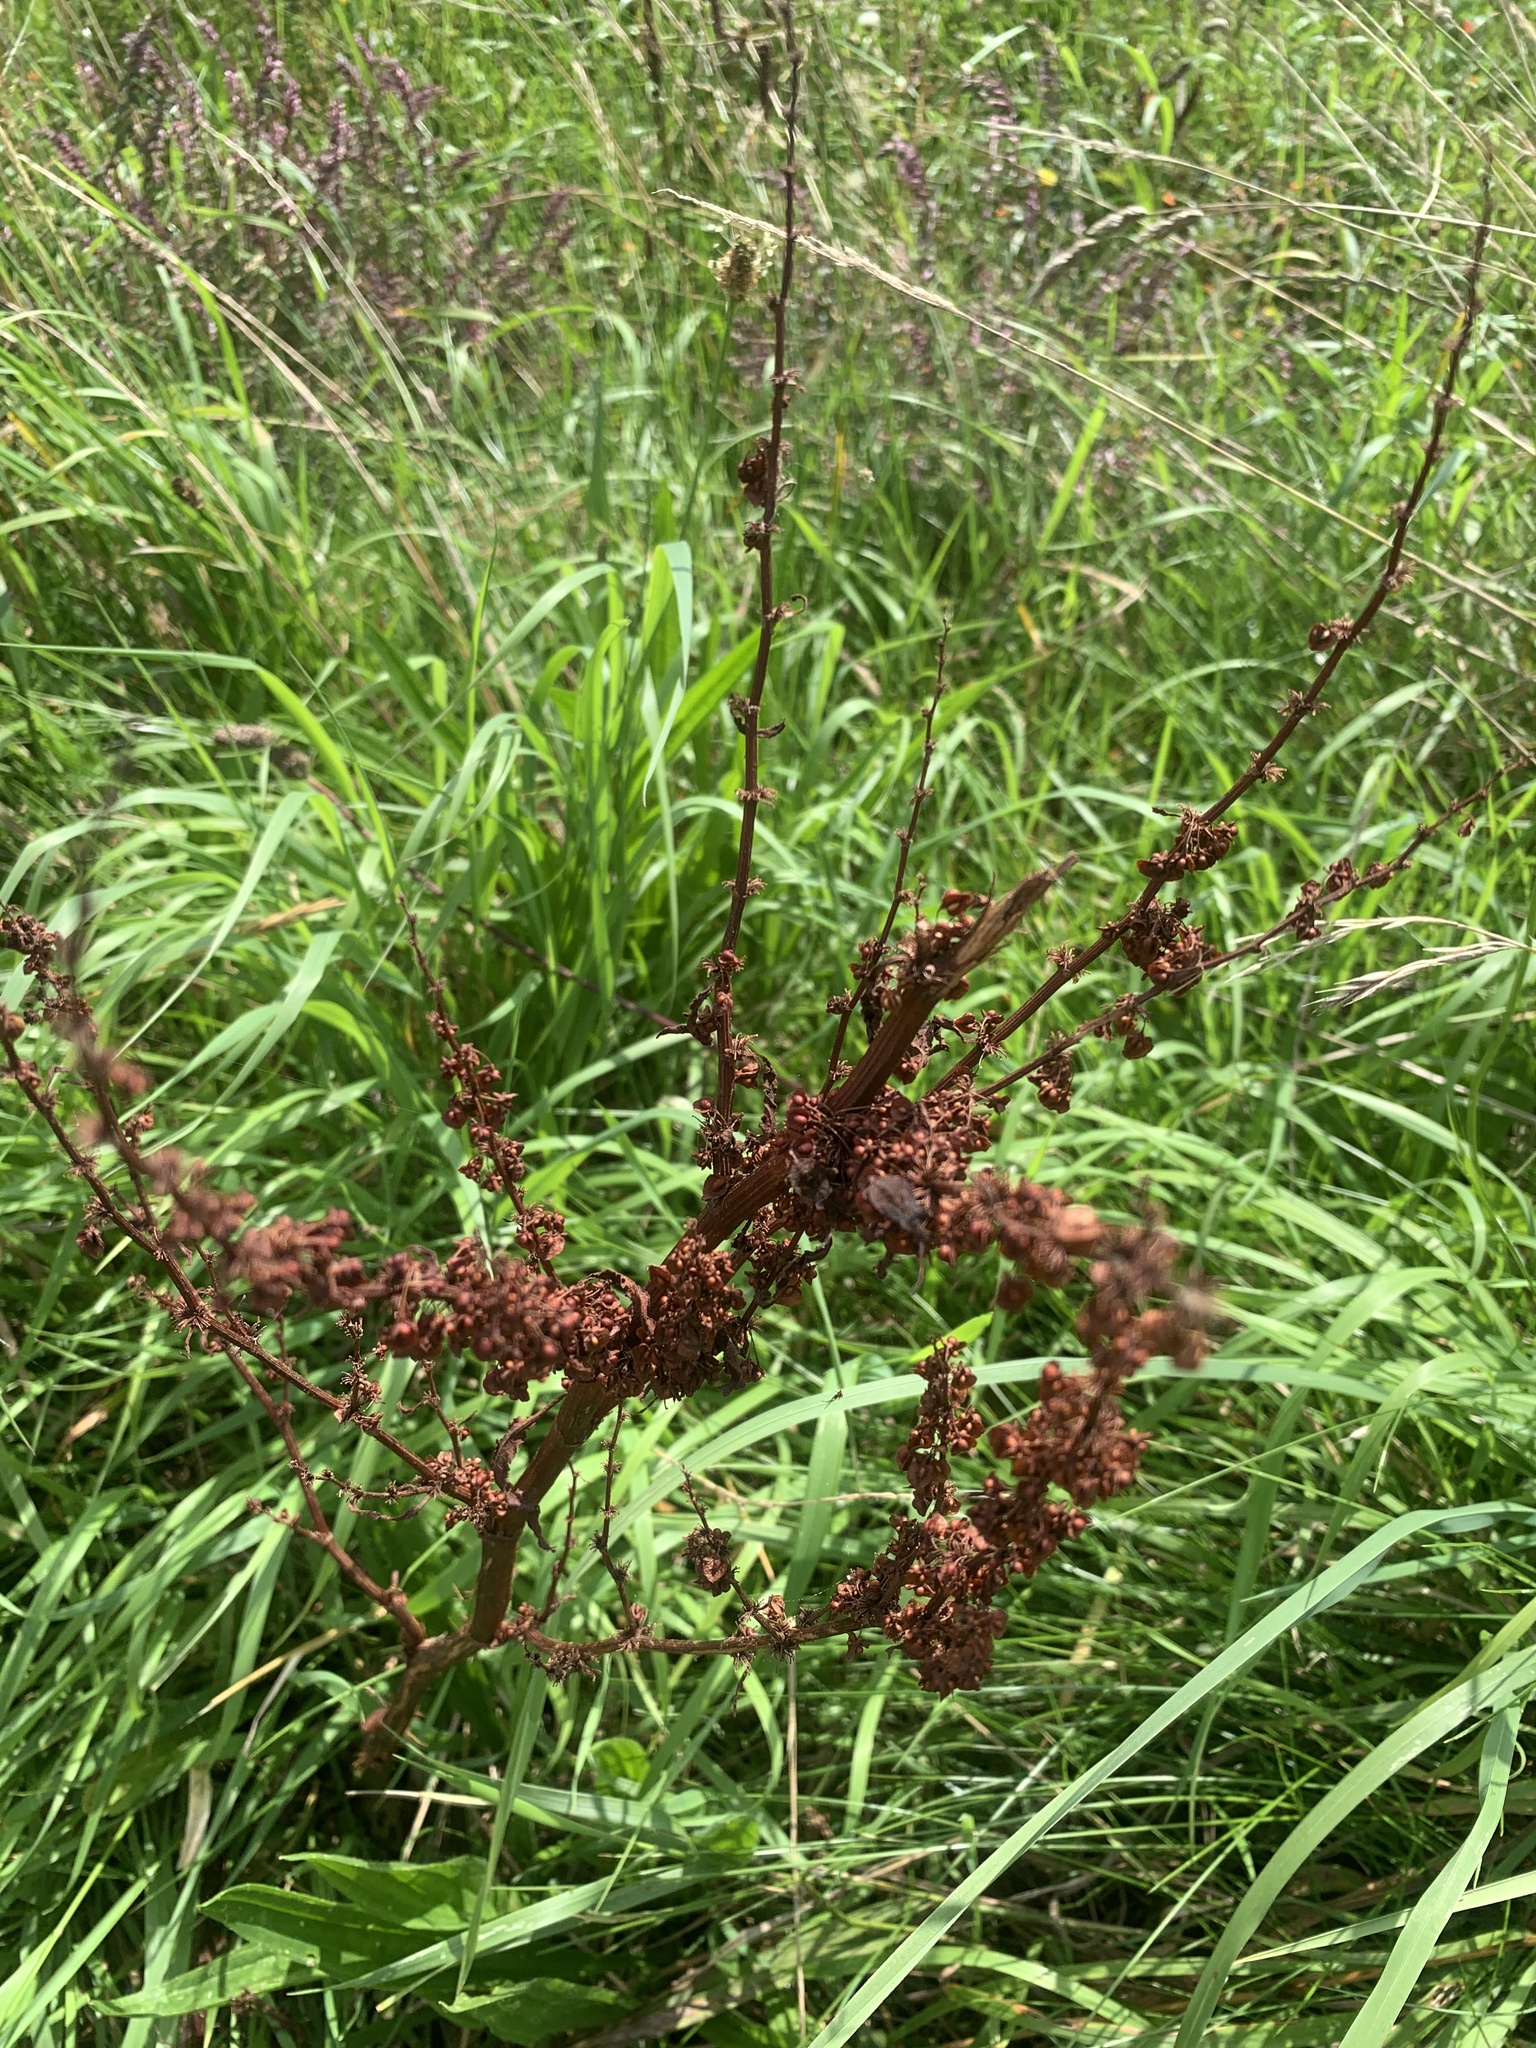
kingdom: Plantae
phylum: Tracheophyta
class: Magnoliopsida
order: Caryophyllales
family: Polygonaceae
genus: Rumex
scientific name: Rumex crispus
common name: Curled dock
